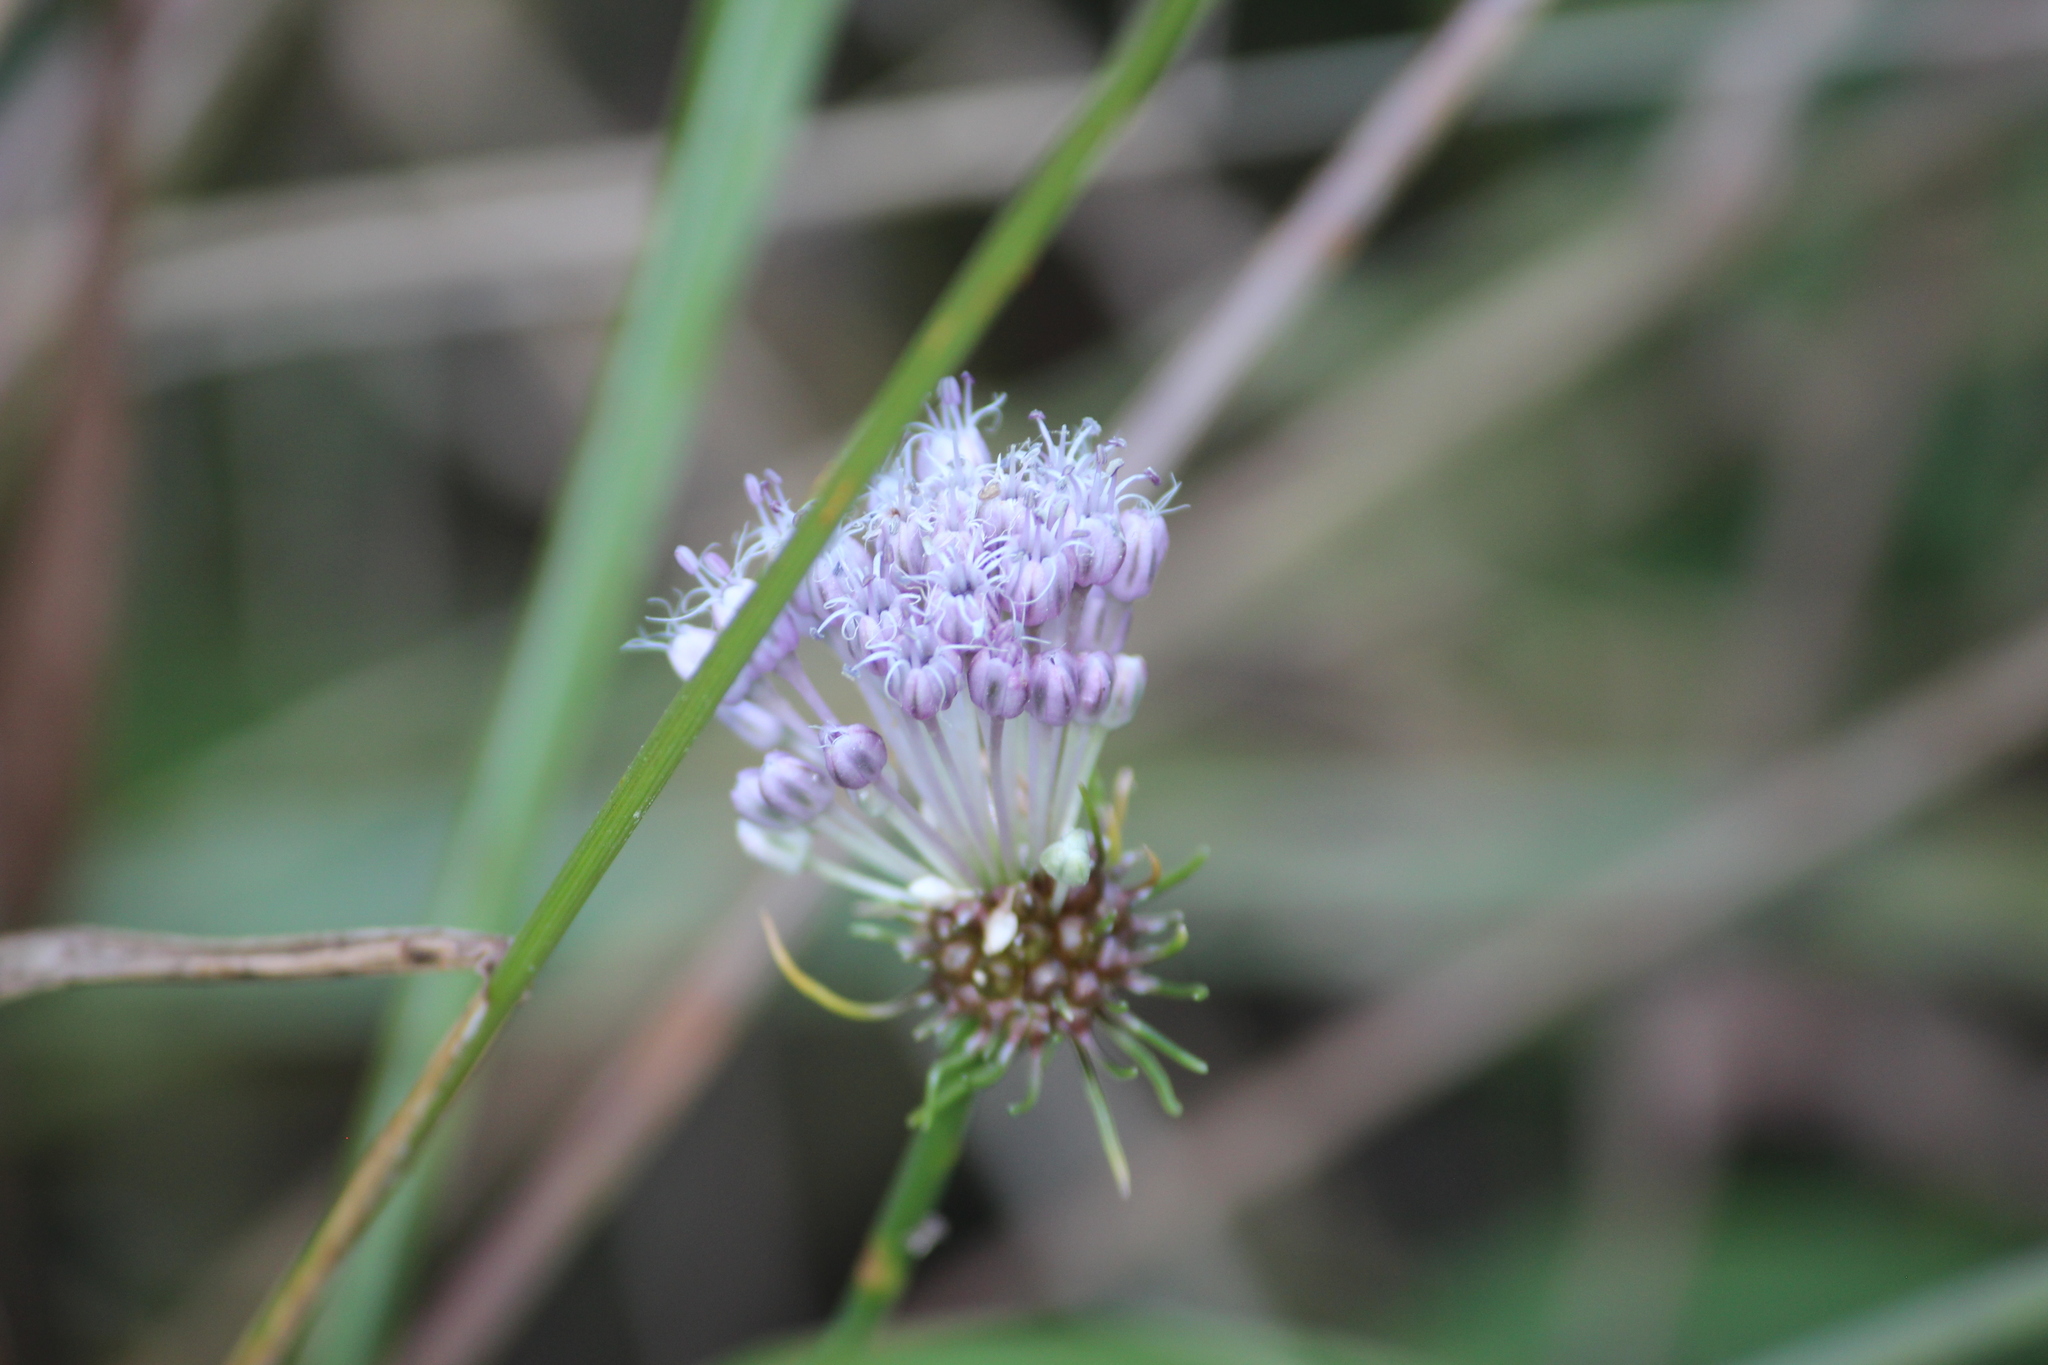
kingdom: Plantae
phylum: Tracheophyta
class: Liliopsida
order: Asparagales
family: Amaryllidaceae
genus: Allium
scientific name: Allium vineale
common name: Crow garlic
